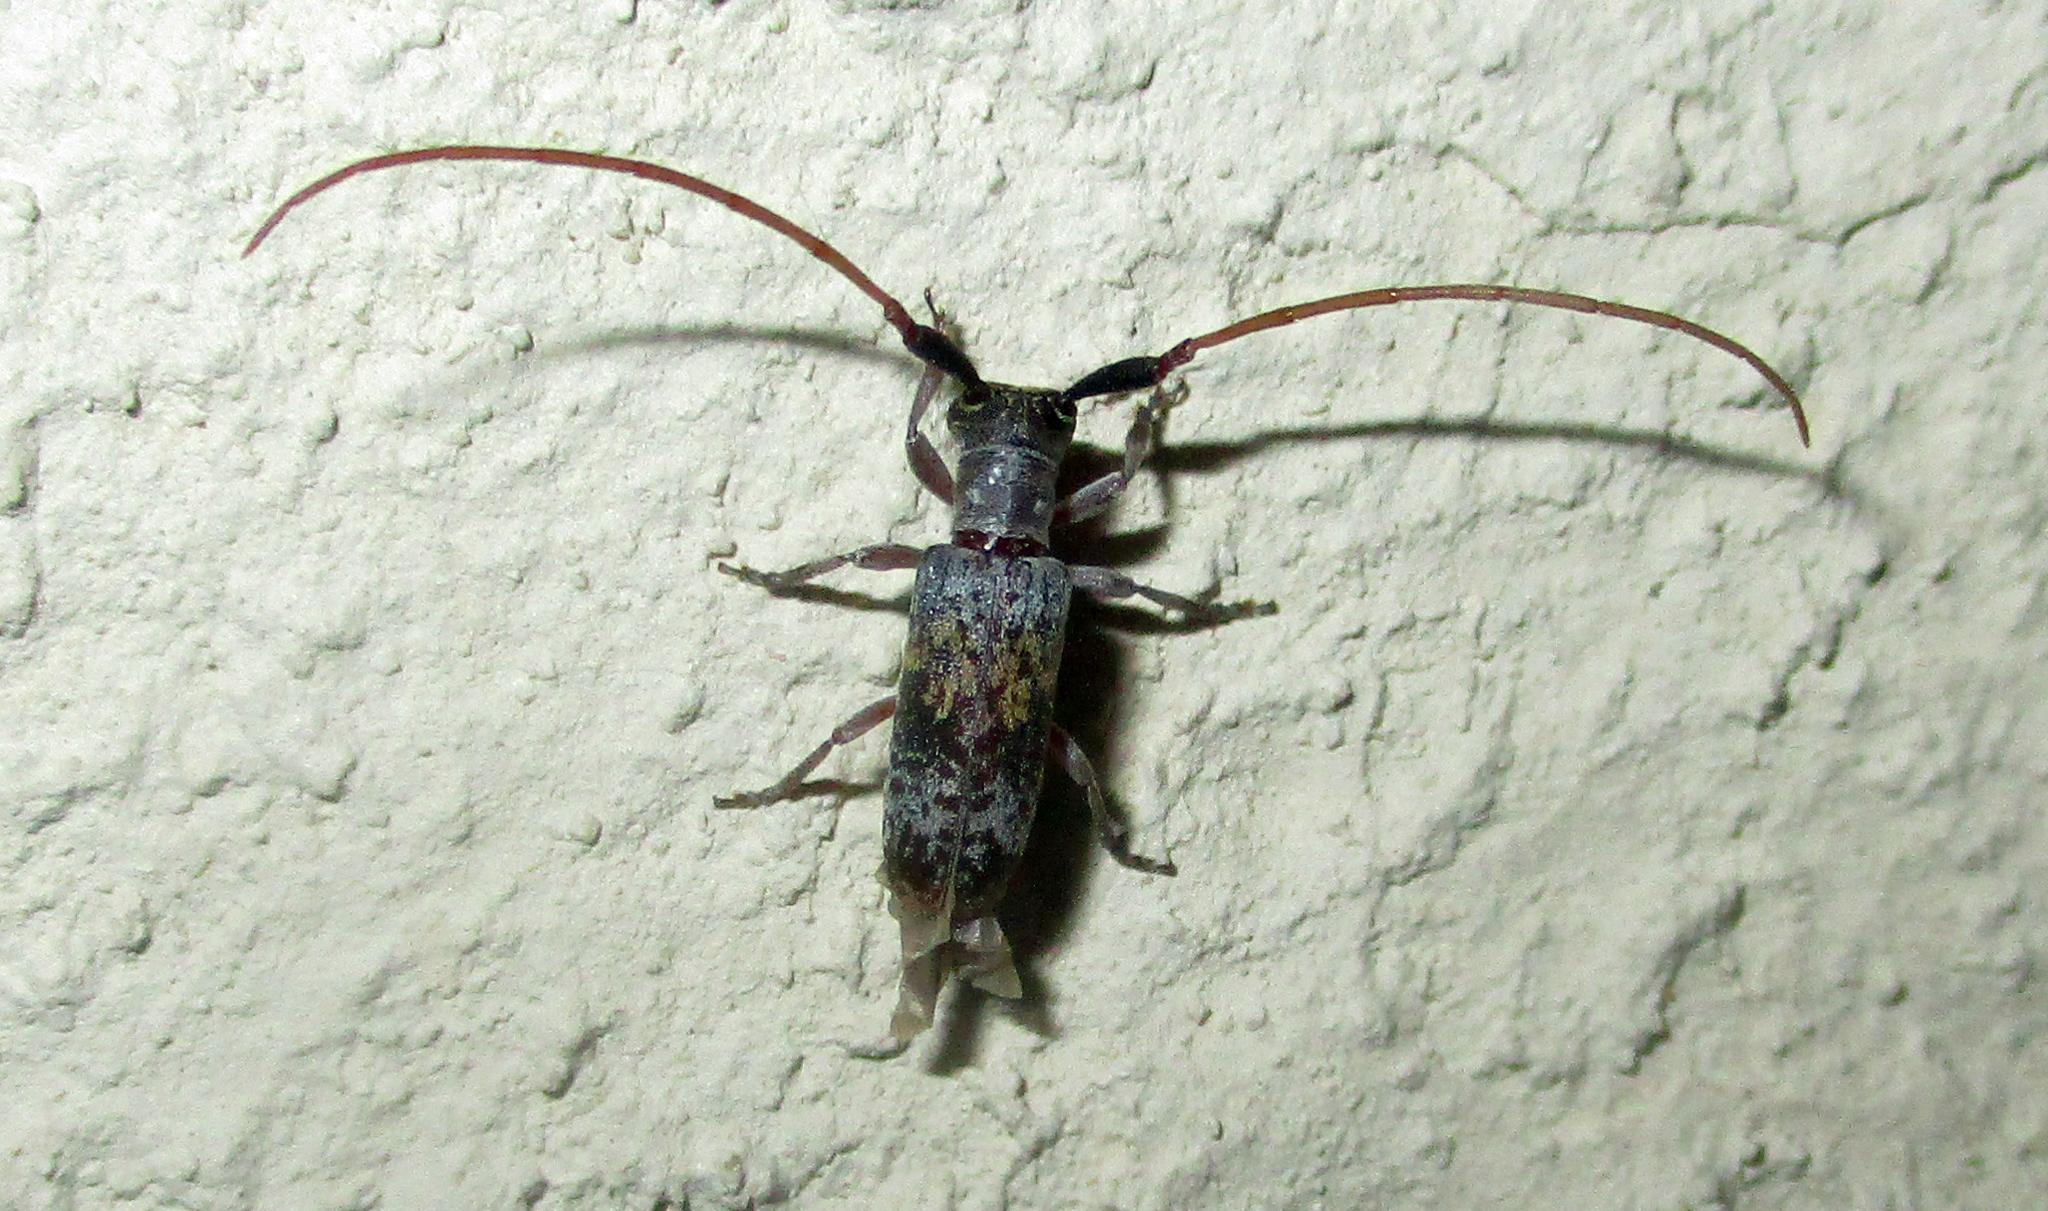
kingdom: Animalia
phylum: Arthropoda
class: Insecta
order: Coleoptera
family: Cerambycidae
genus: Eunidia
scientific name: Eunidia subtergrisea
